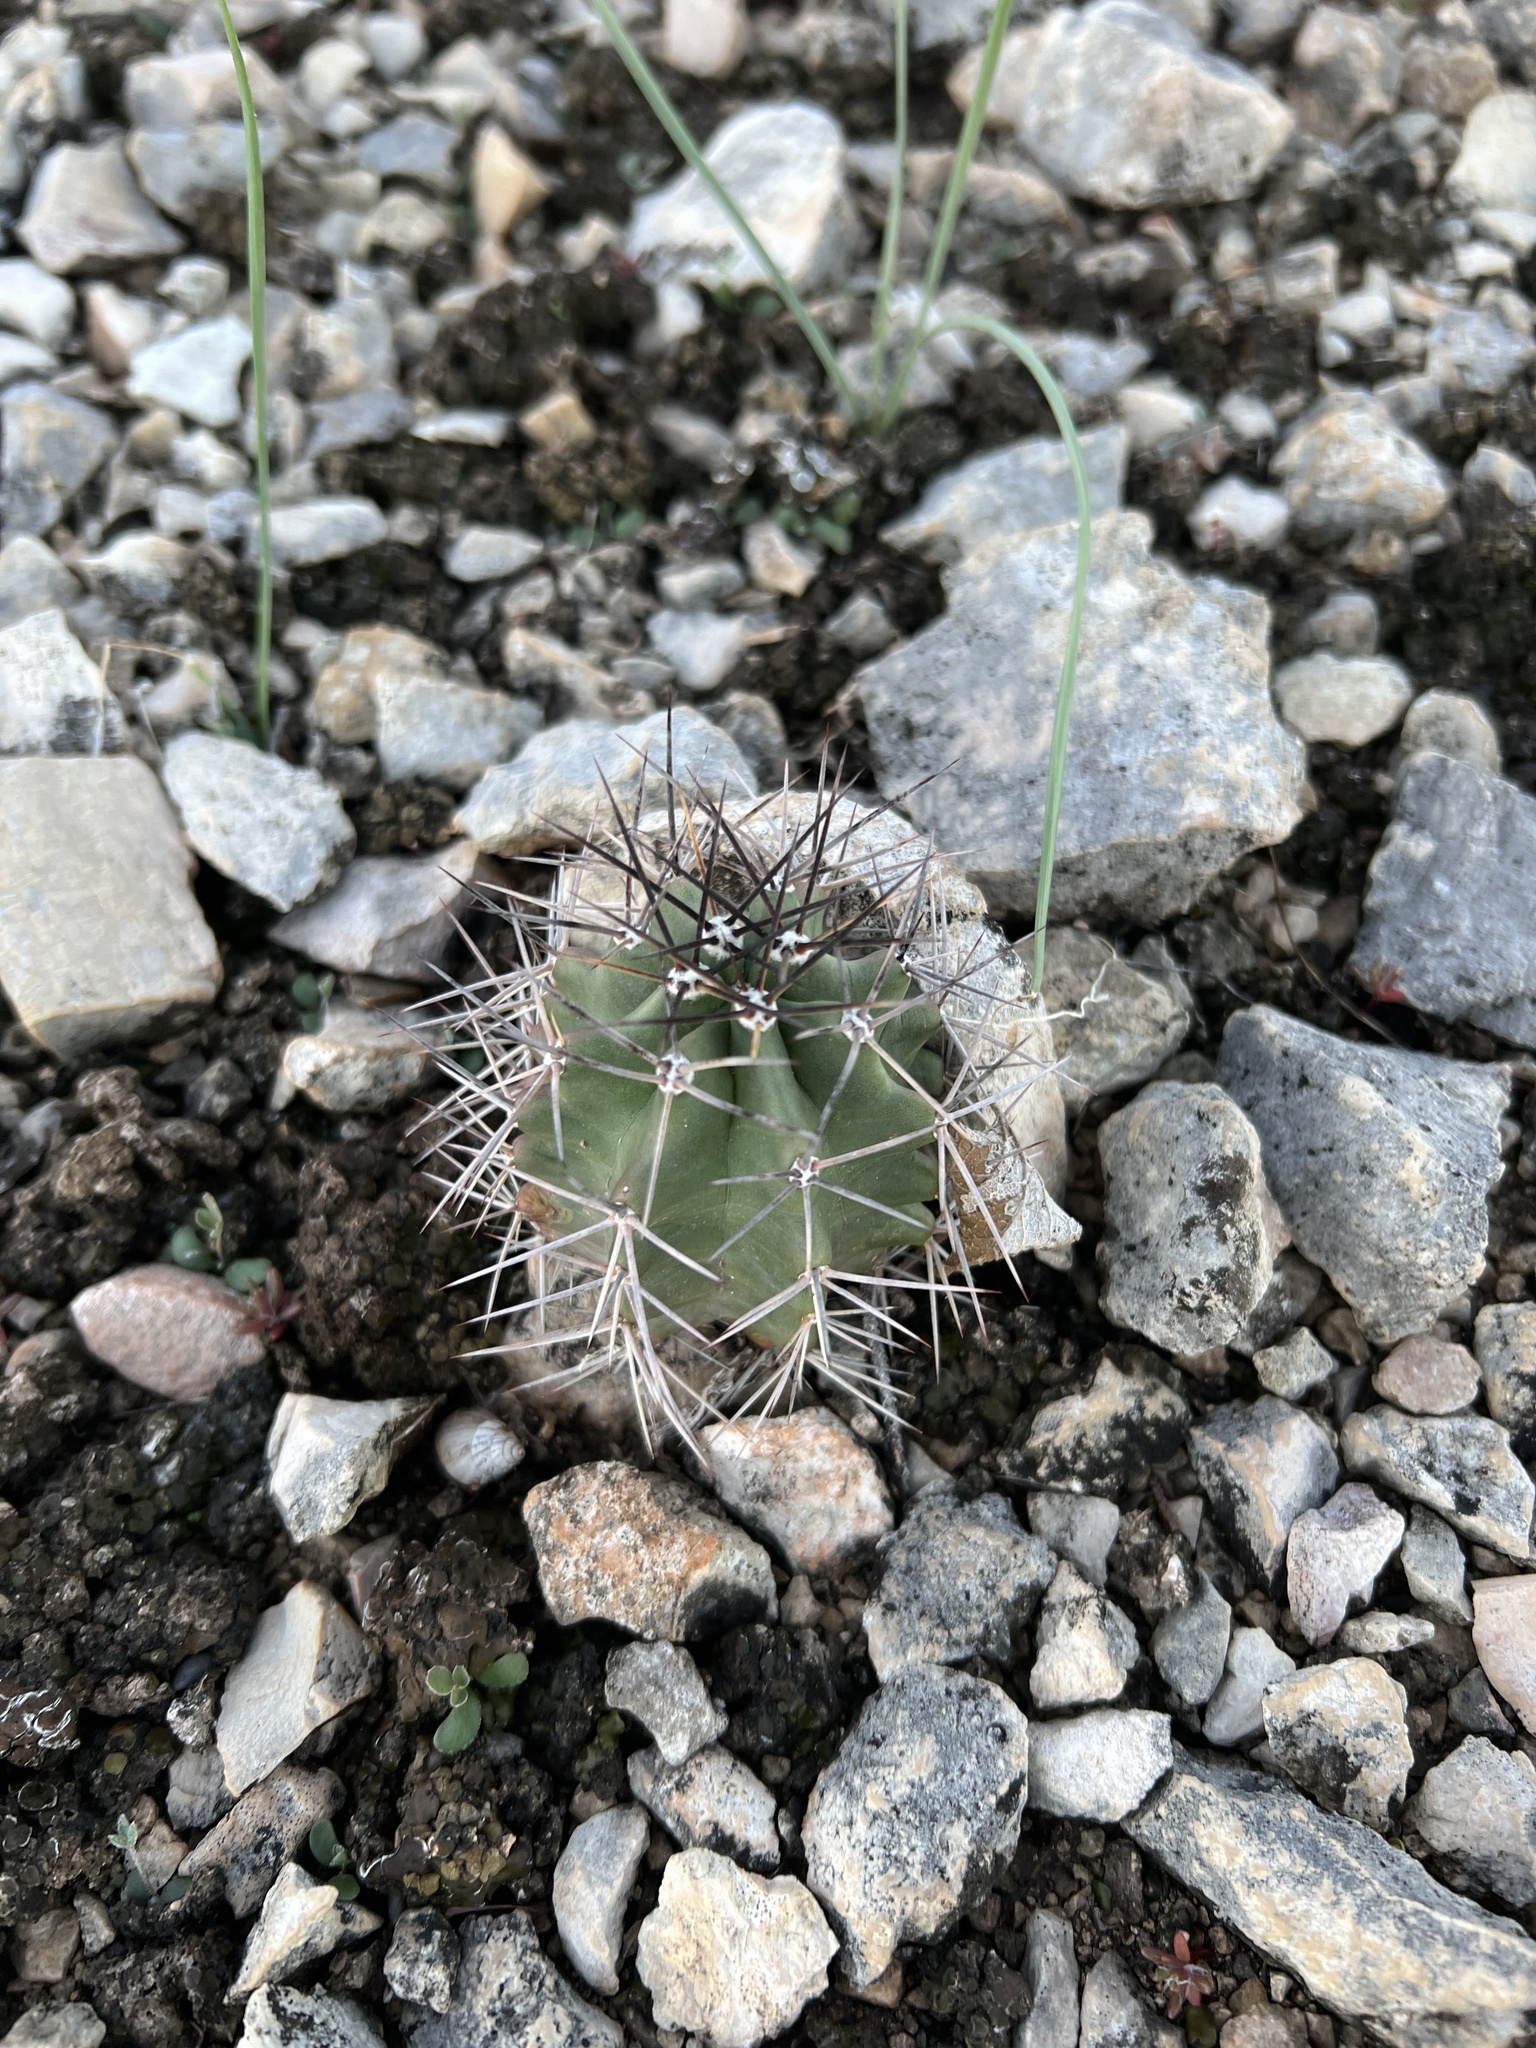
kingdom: Plantae
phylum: Tracheophyta
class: Magnoliopsida
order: Caryophyllales
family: Cactaceae
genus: Echinocereus
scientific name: Echinocereus coccineus
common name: Scarlet hedgehog cactus
